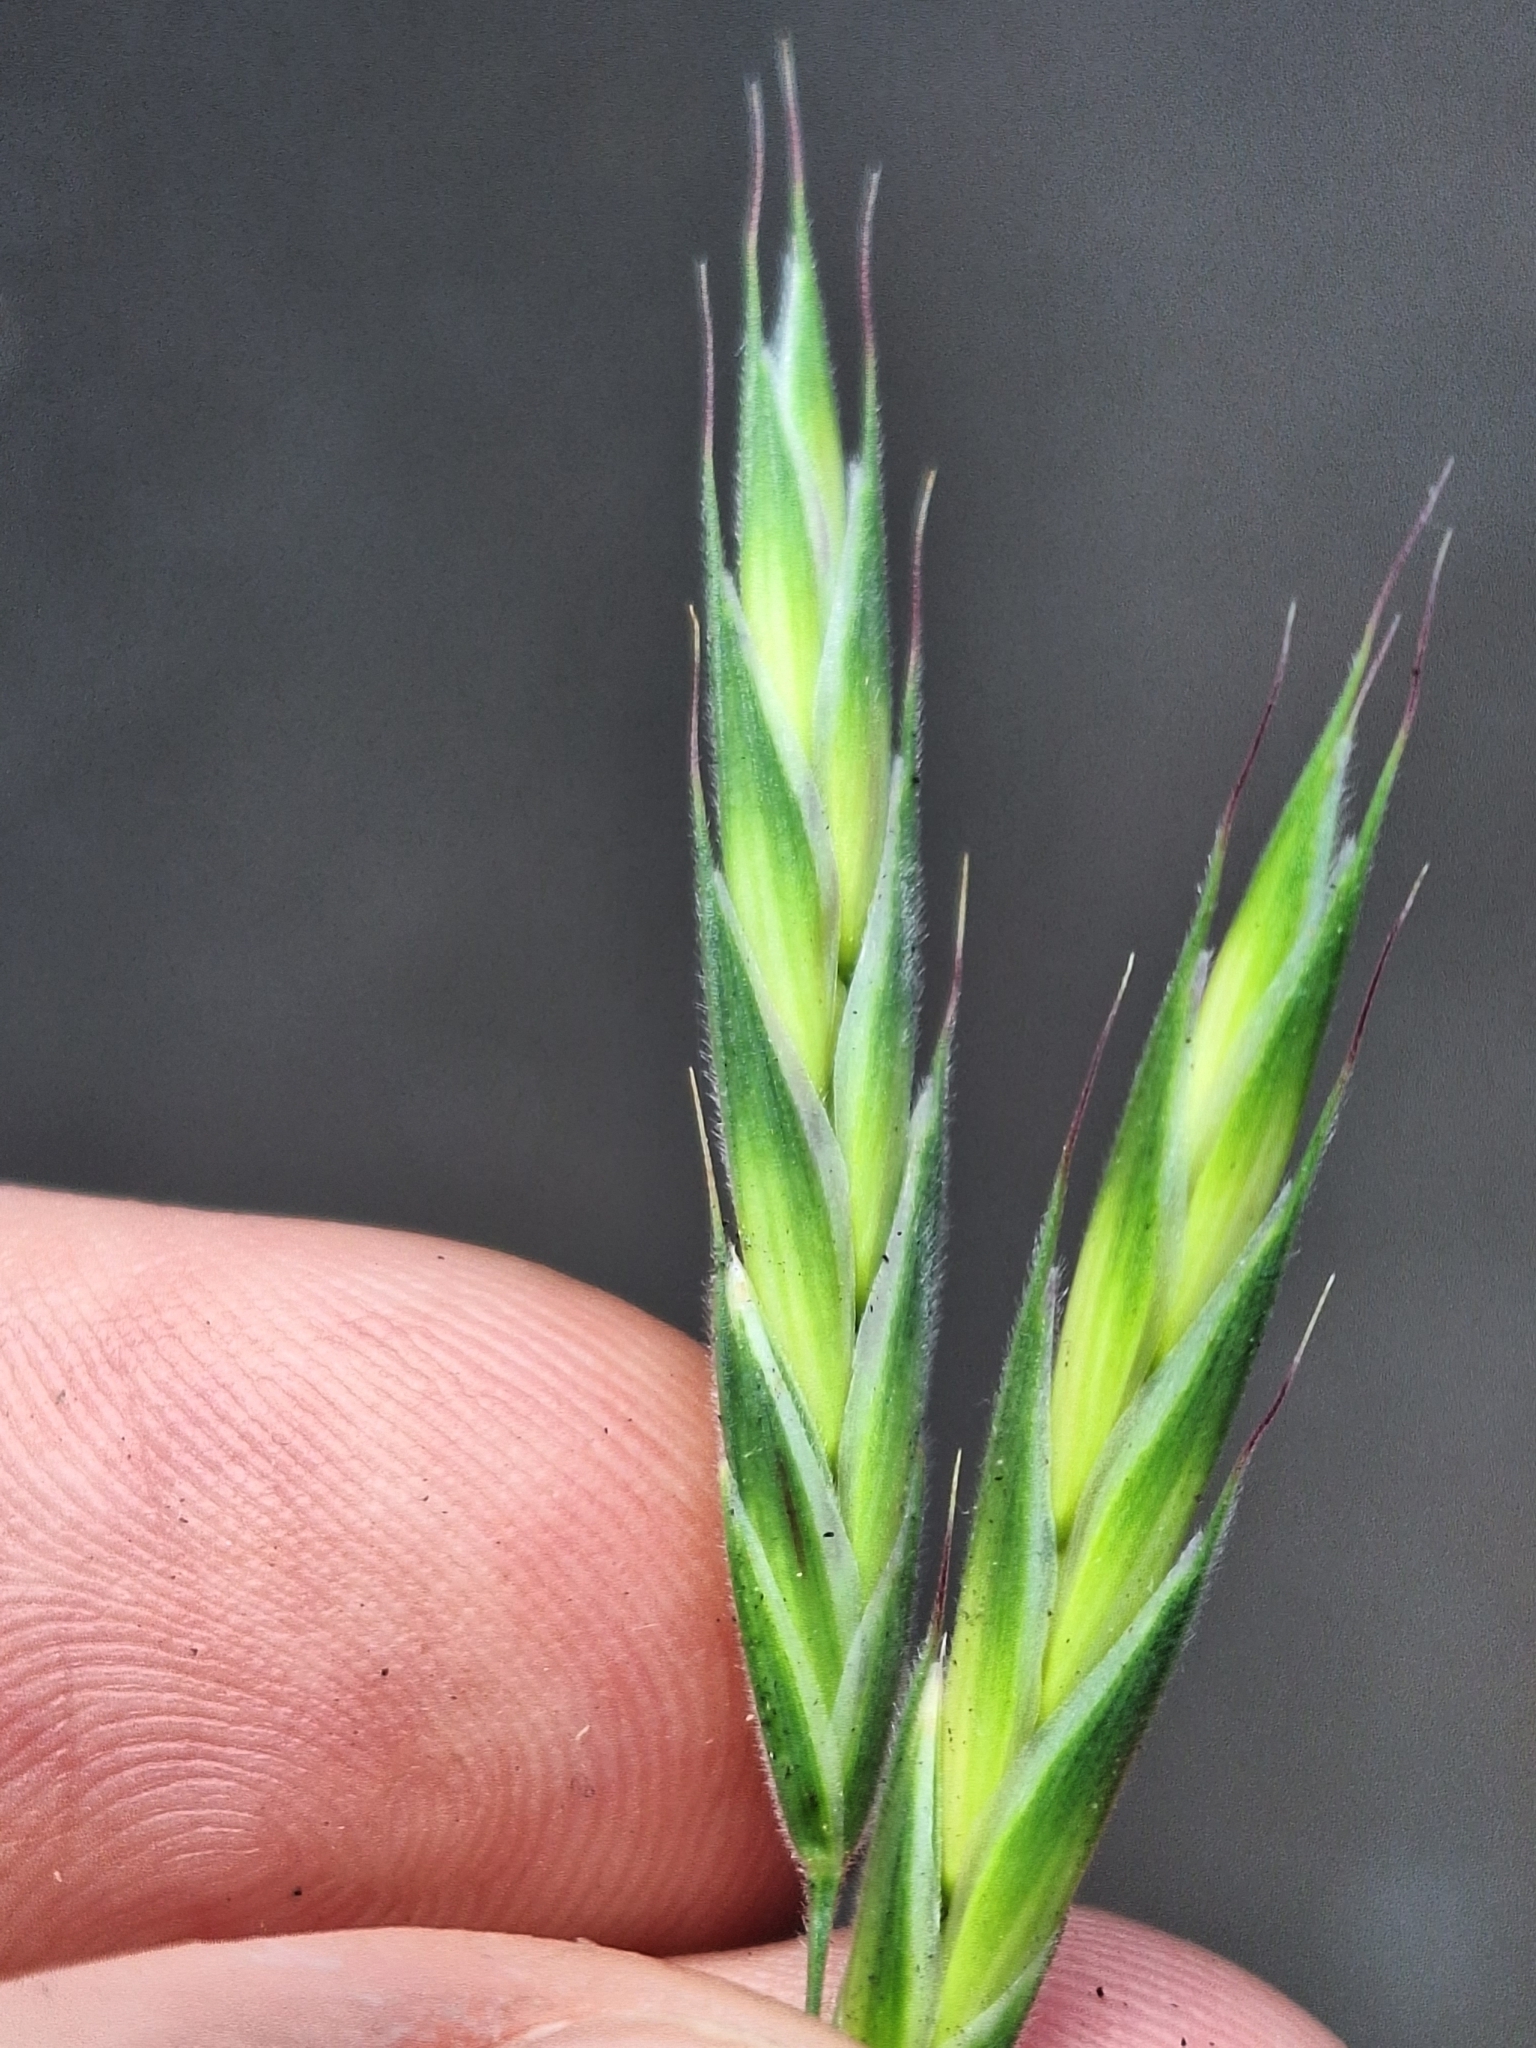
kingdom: Plantae
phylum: Tracheophyta
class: Liliopsida
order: Poales
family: Poaceae
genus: Bromus
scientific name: Bromus cebadilla
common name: Southern brome
